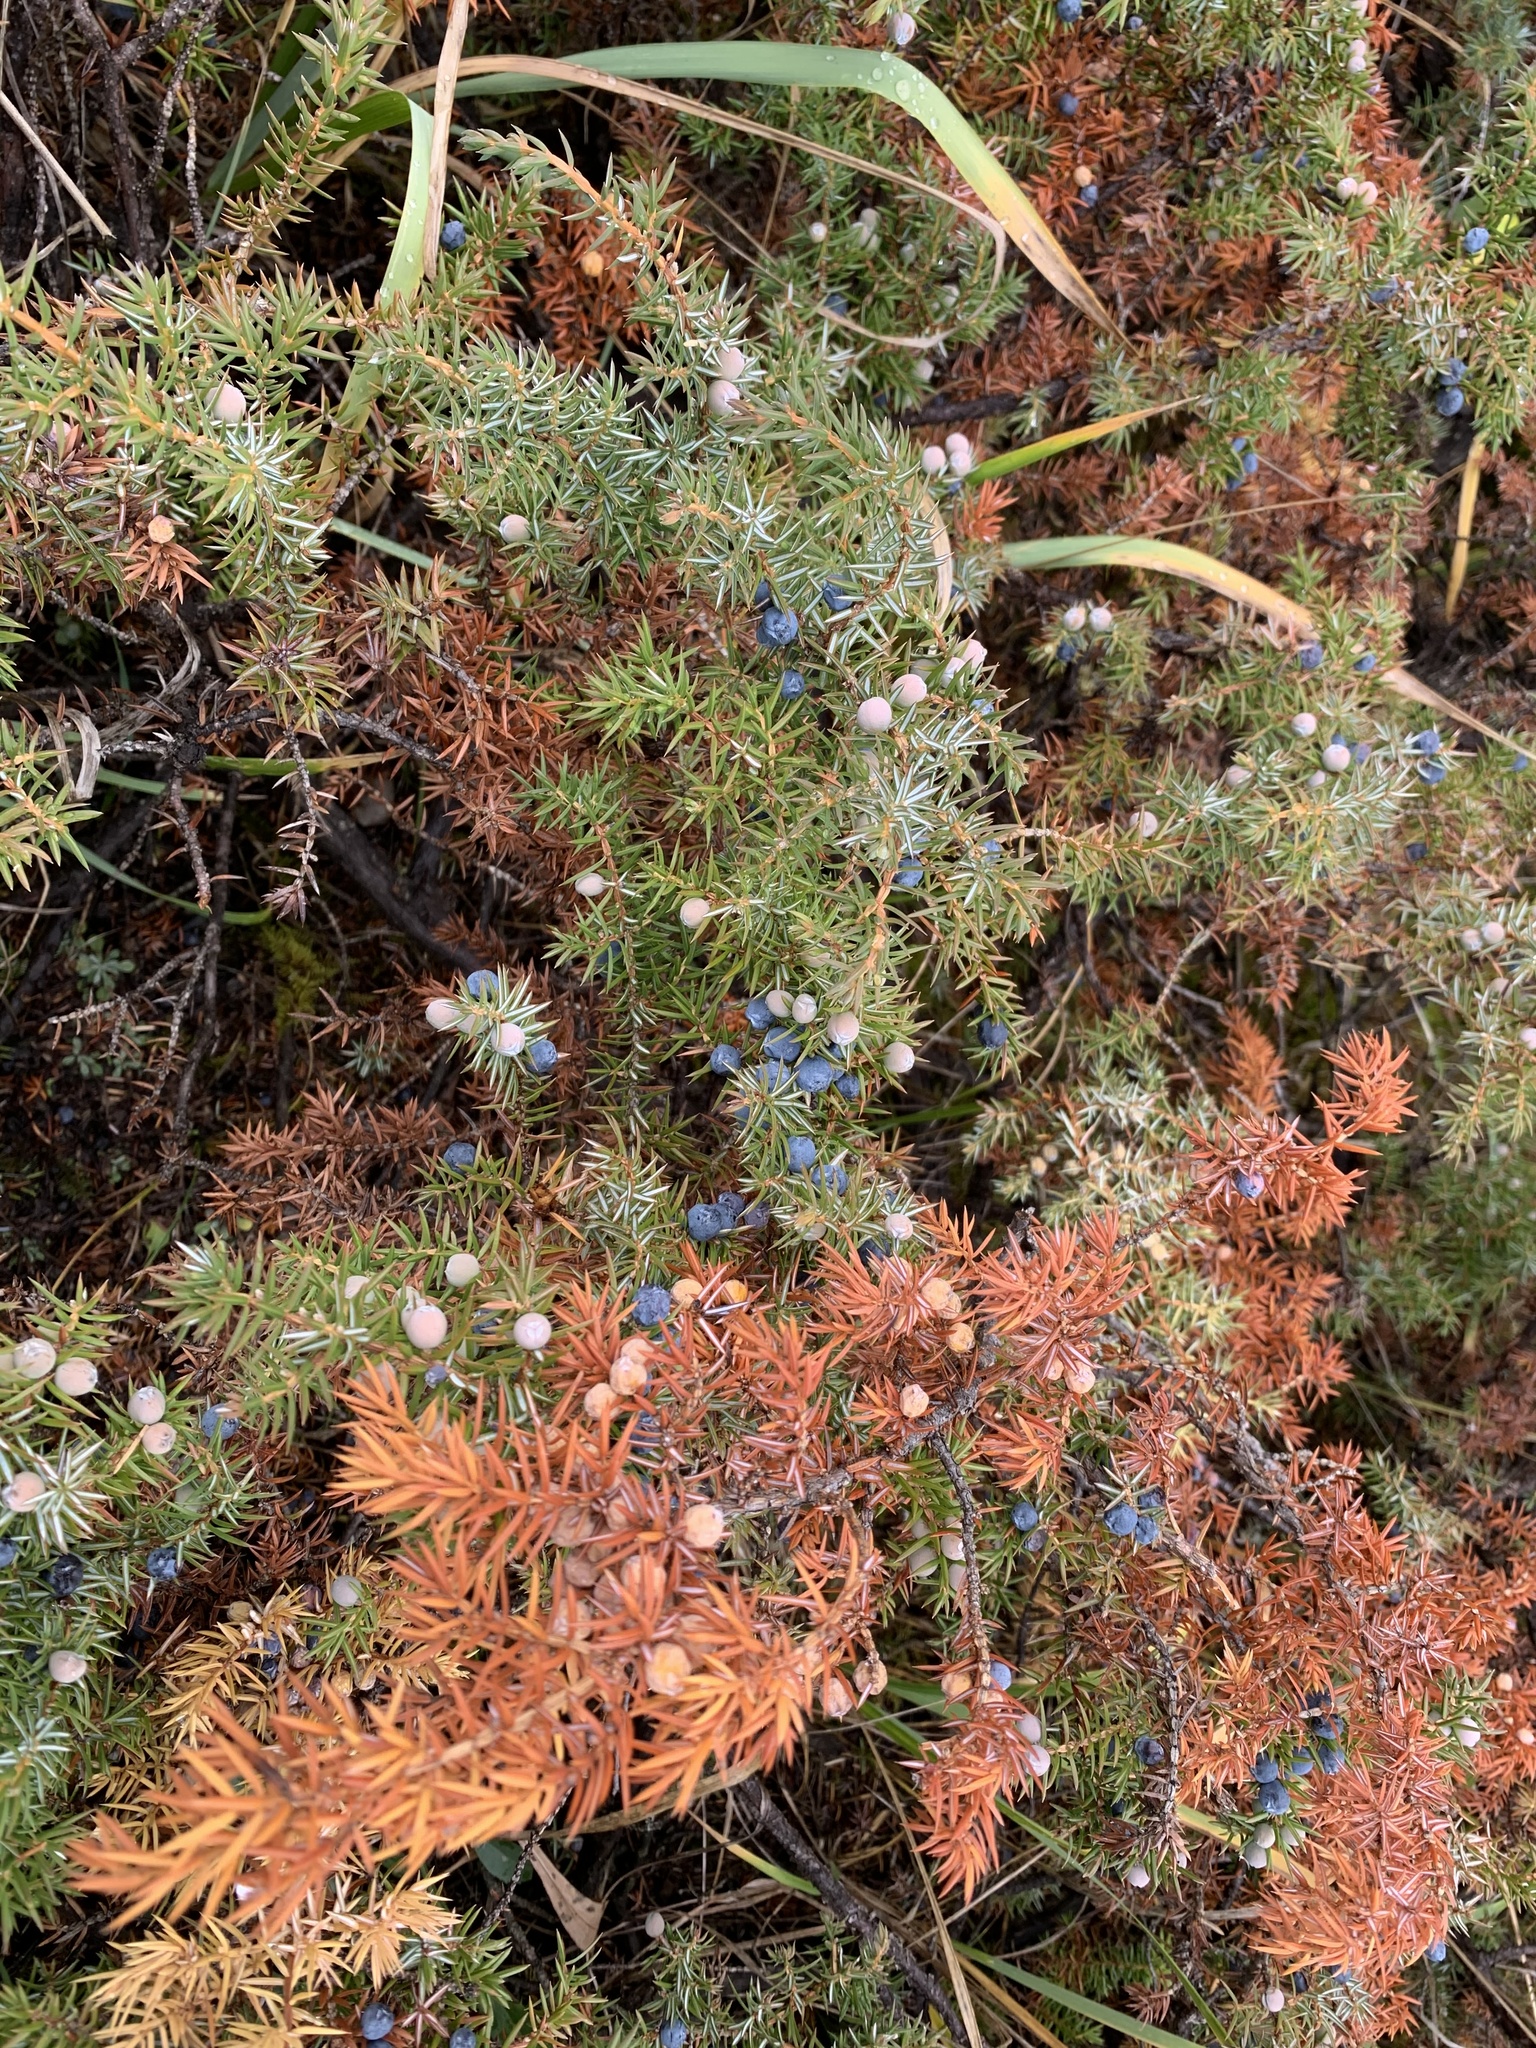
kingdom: Plantae
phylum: Tracheophyta
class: Pinopsida
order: Pinales
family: Cupressaceae
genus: Juniperus
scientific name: Juniperus communis
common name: Common juniper
